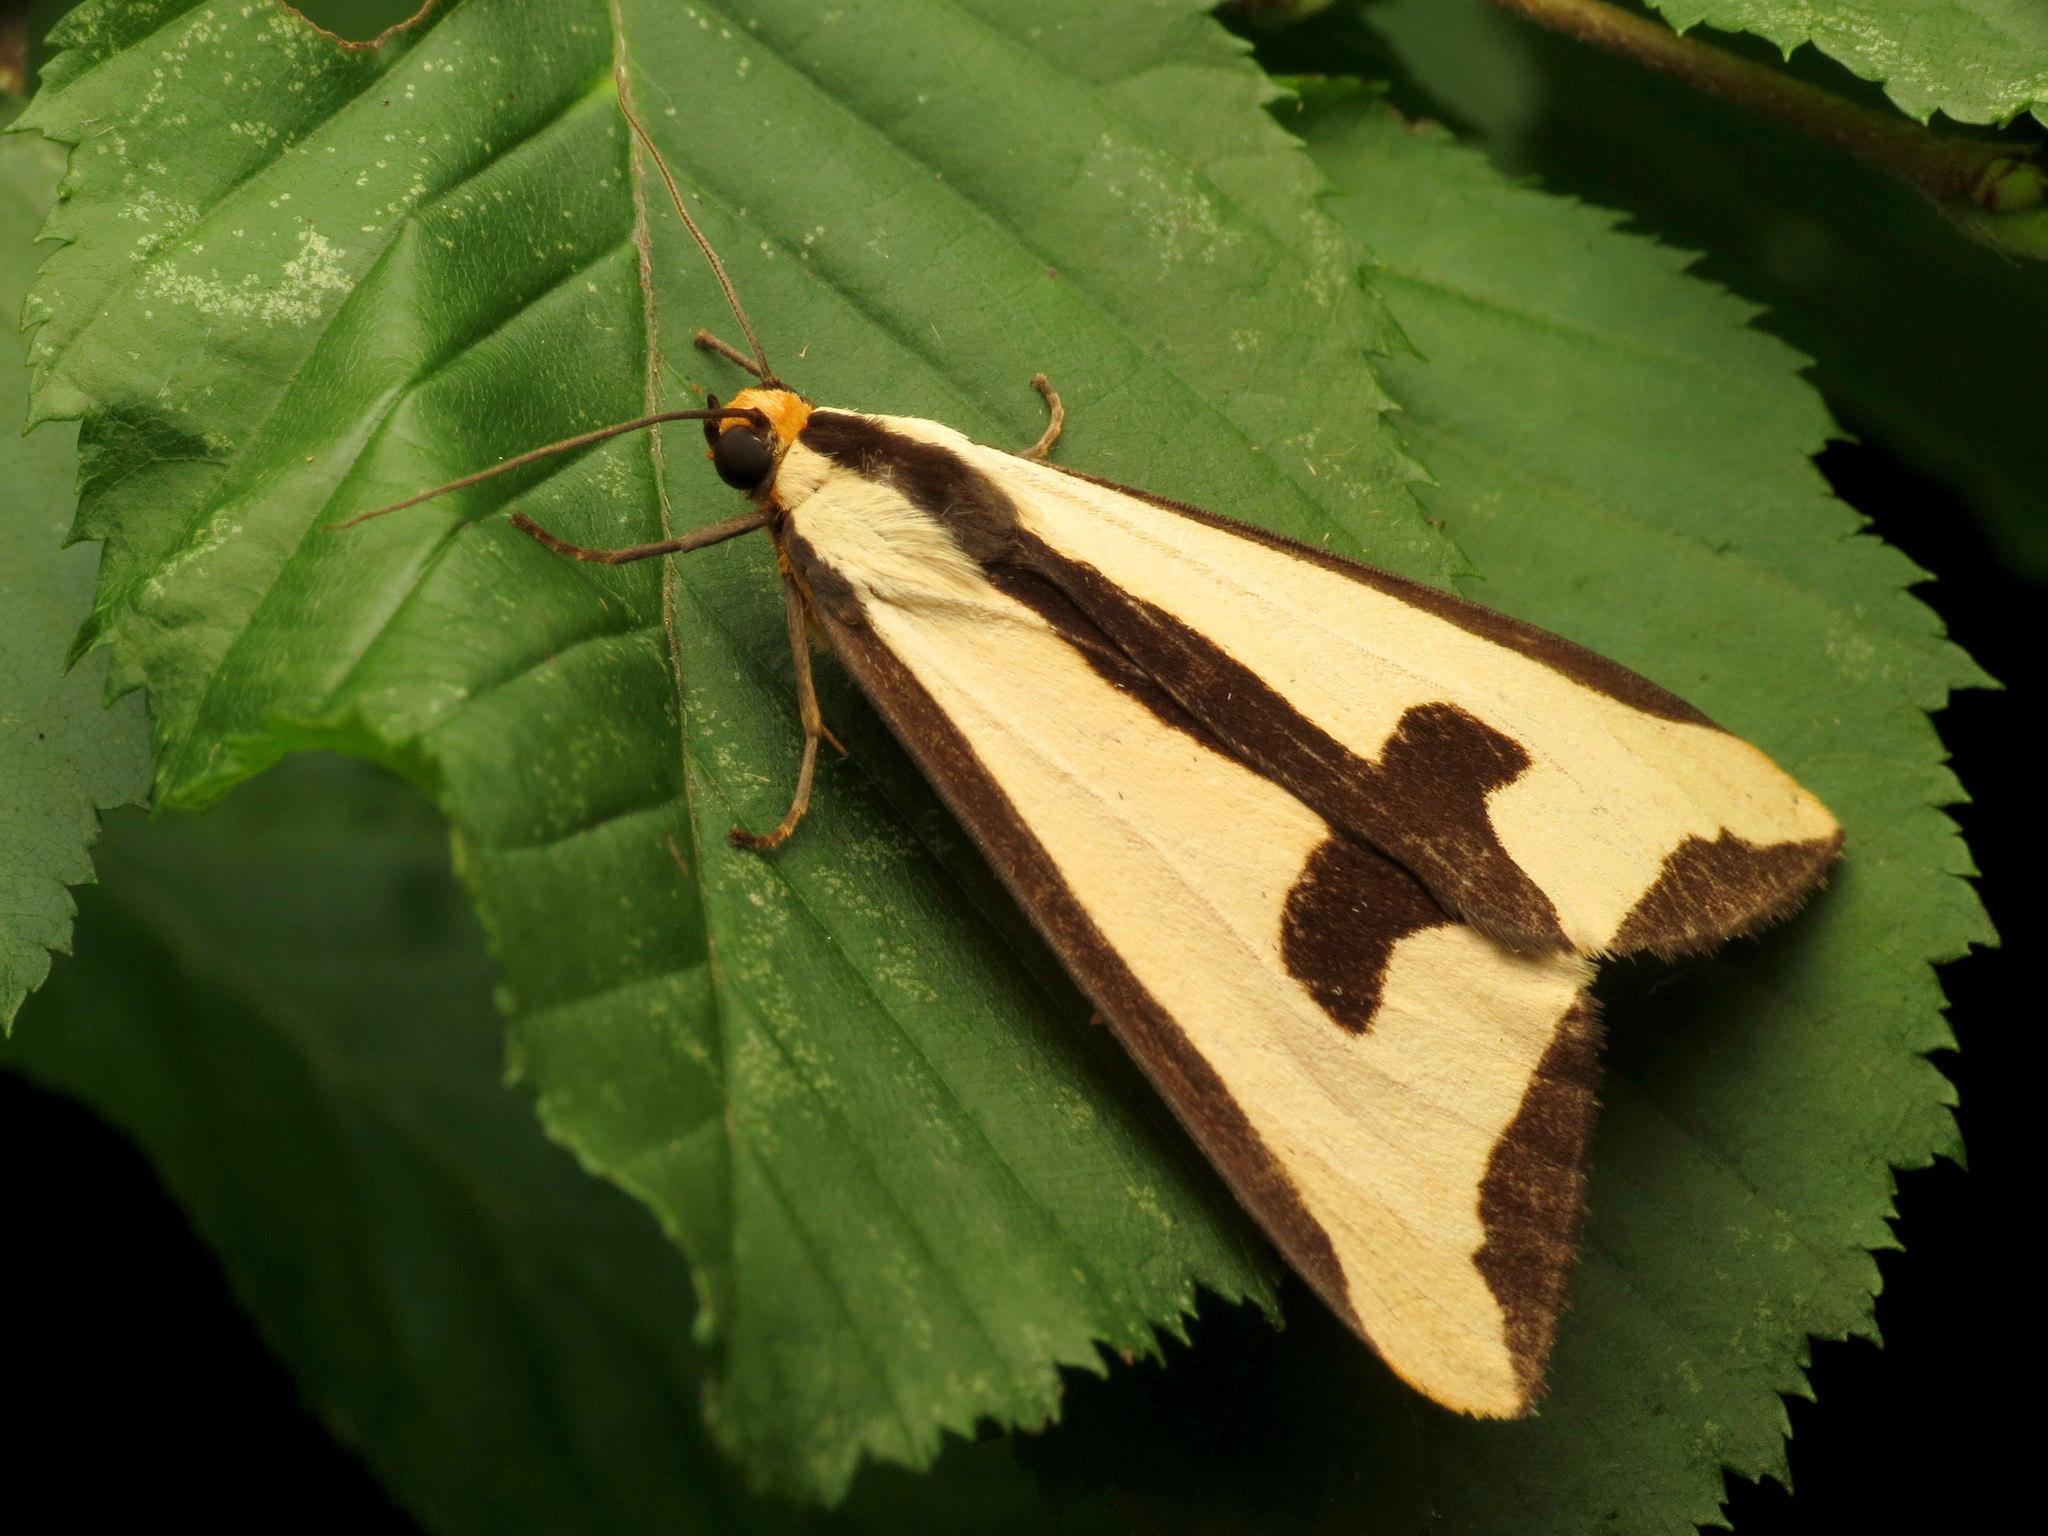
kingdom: Animalia
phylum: Arthropoda
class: Insecta
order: Lepidoptera
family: Erebidae
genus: Haploa
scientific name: Haploa clymene
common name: Clymene moth
